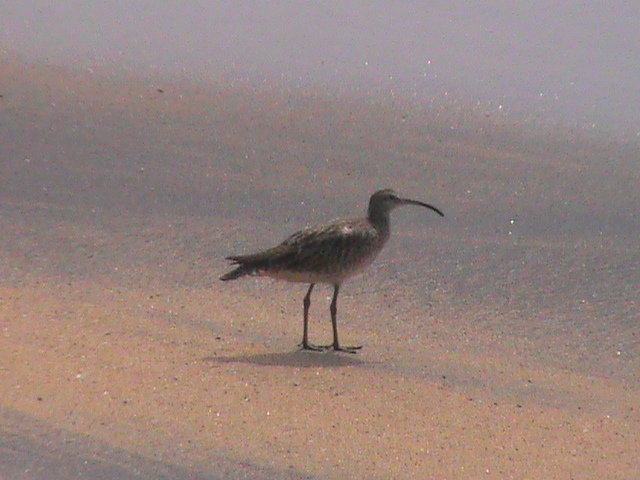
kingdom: Animalia
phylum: Chordata
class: Aves
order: Charadriiformes
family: Scolopacidae
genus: Numenius
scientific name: Numenius phaeopus
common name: Whimbrel
